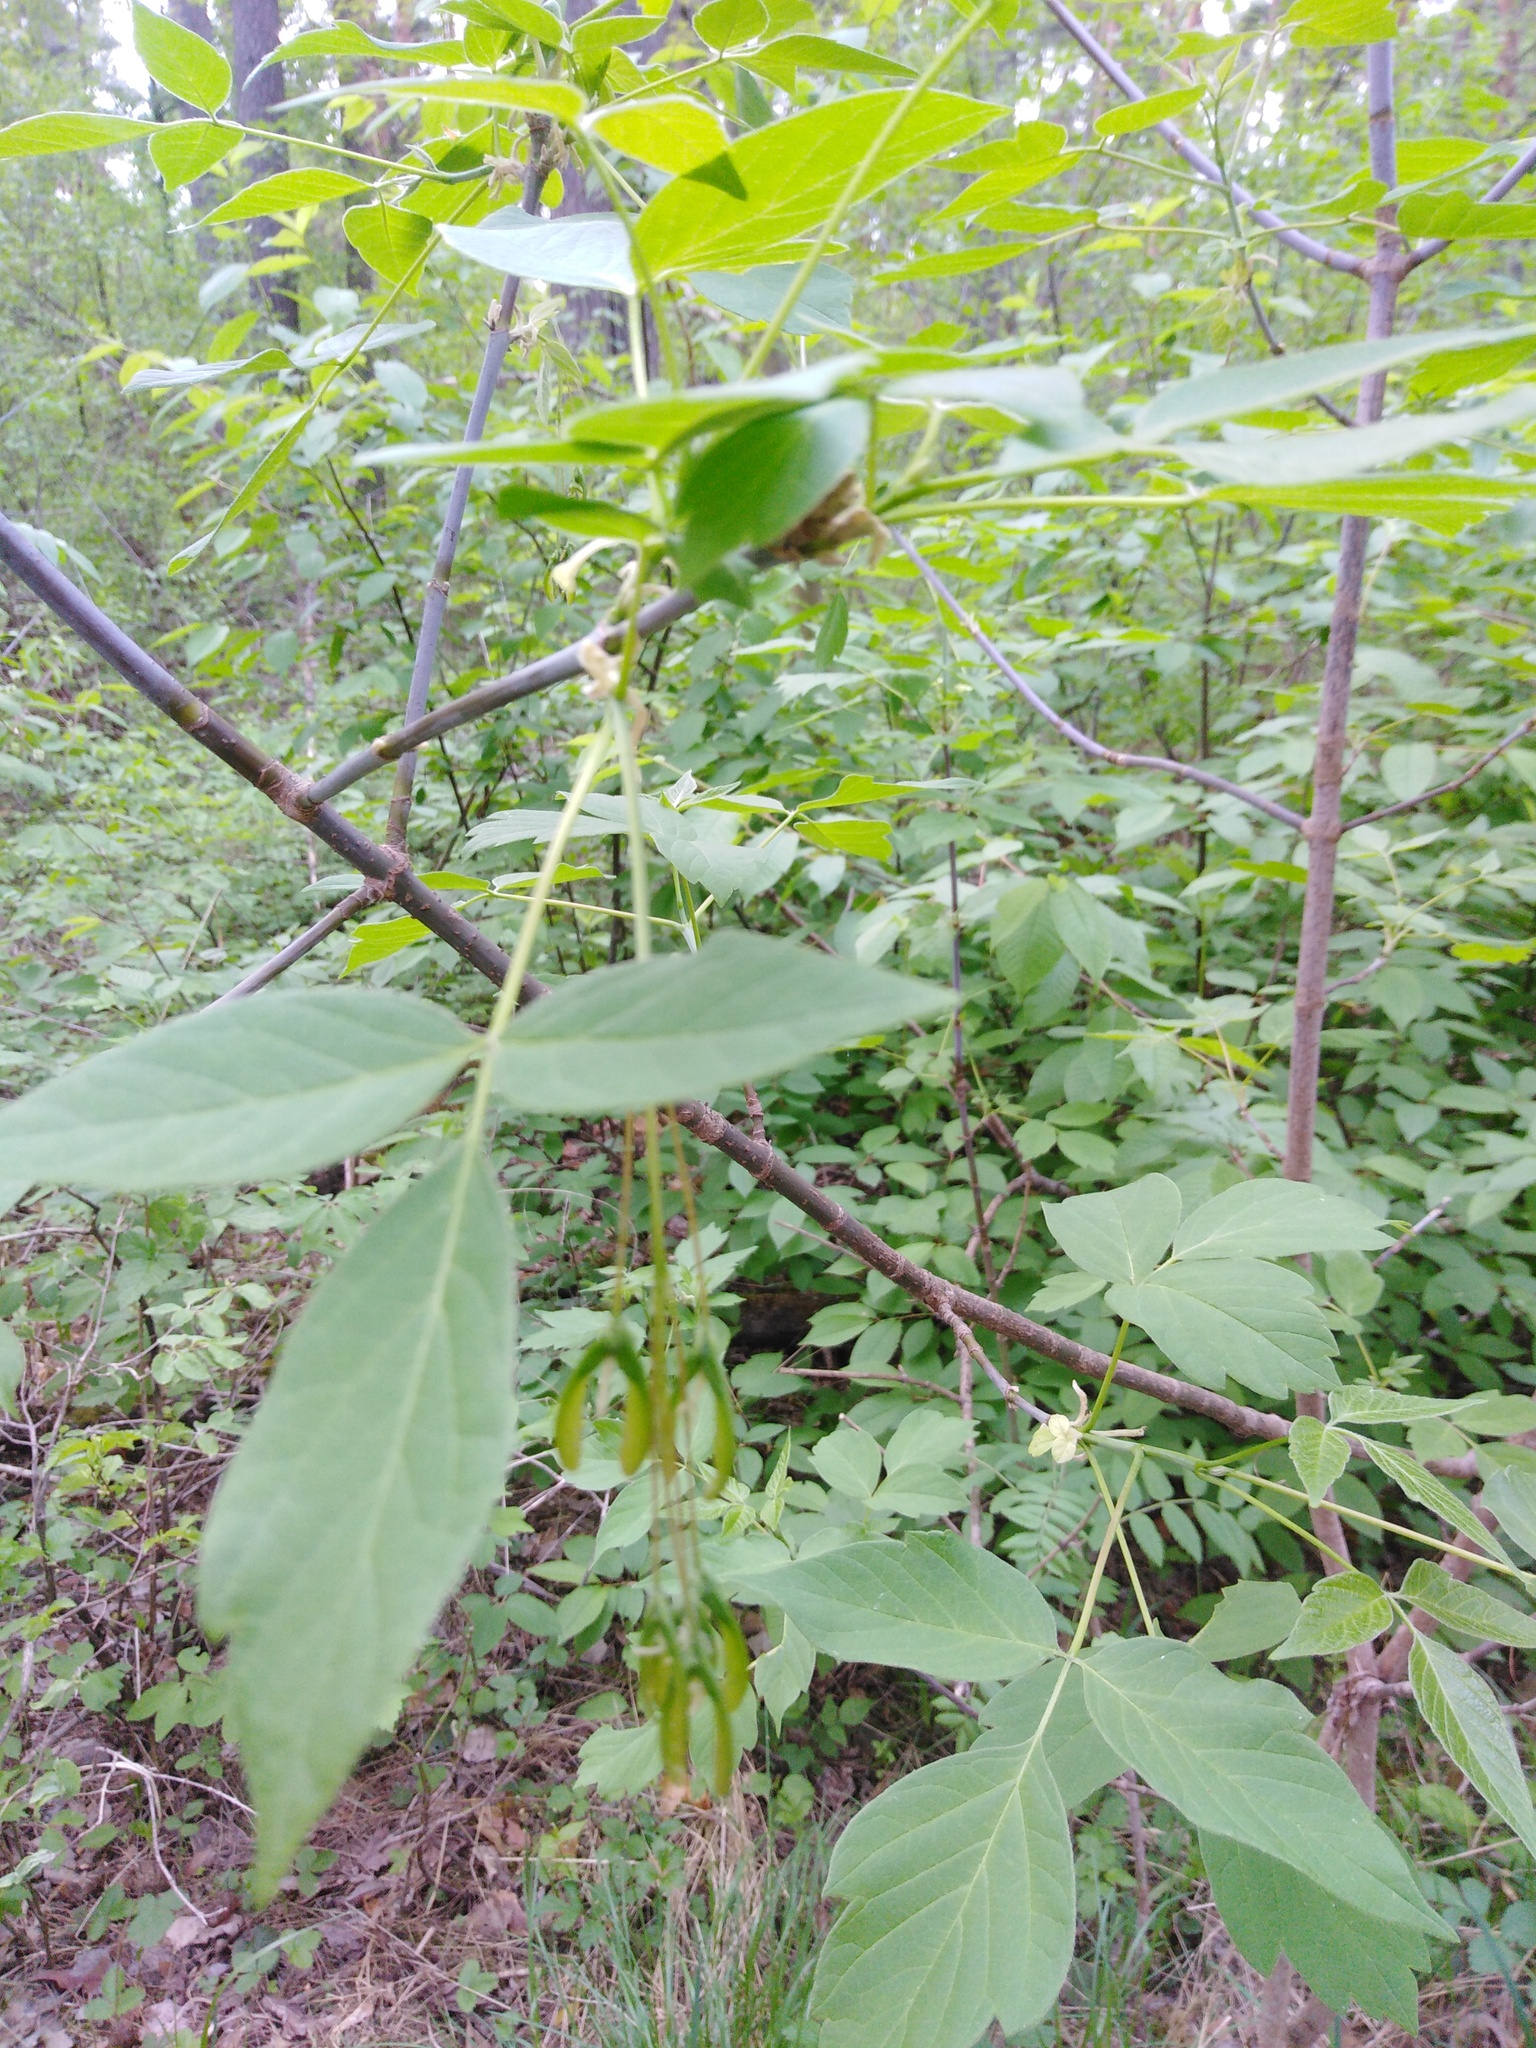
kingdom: Plantae
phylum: Tracheophyta
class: Magnoliopsida
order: Sapindales
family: Sapindaceae
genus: Acer
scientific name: Acer negundo
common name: Ashleaf maple
